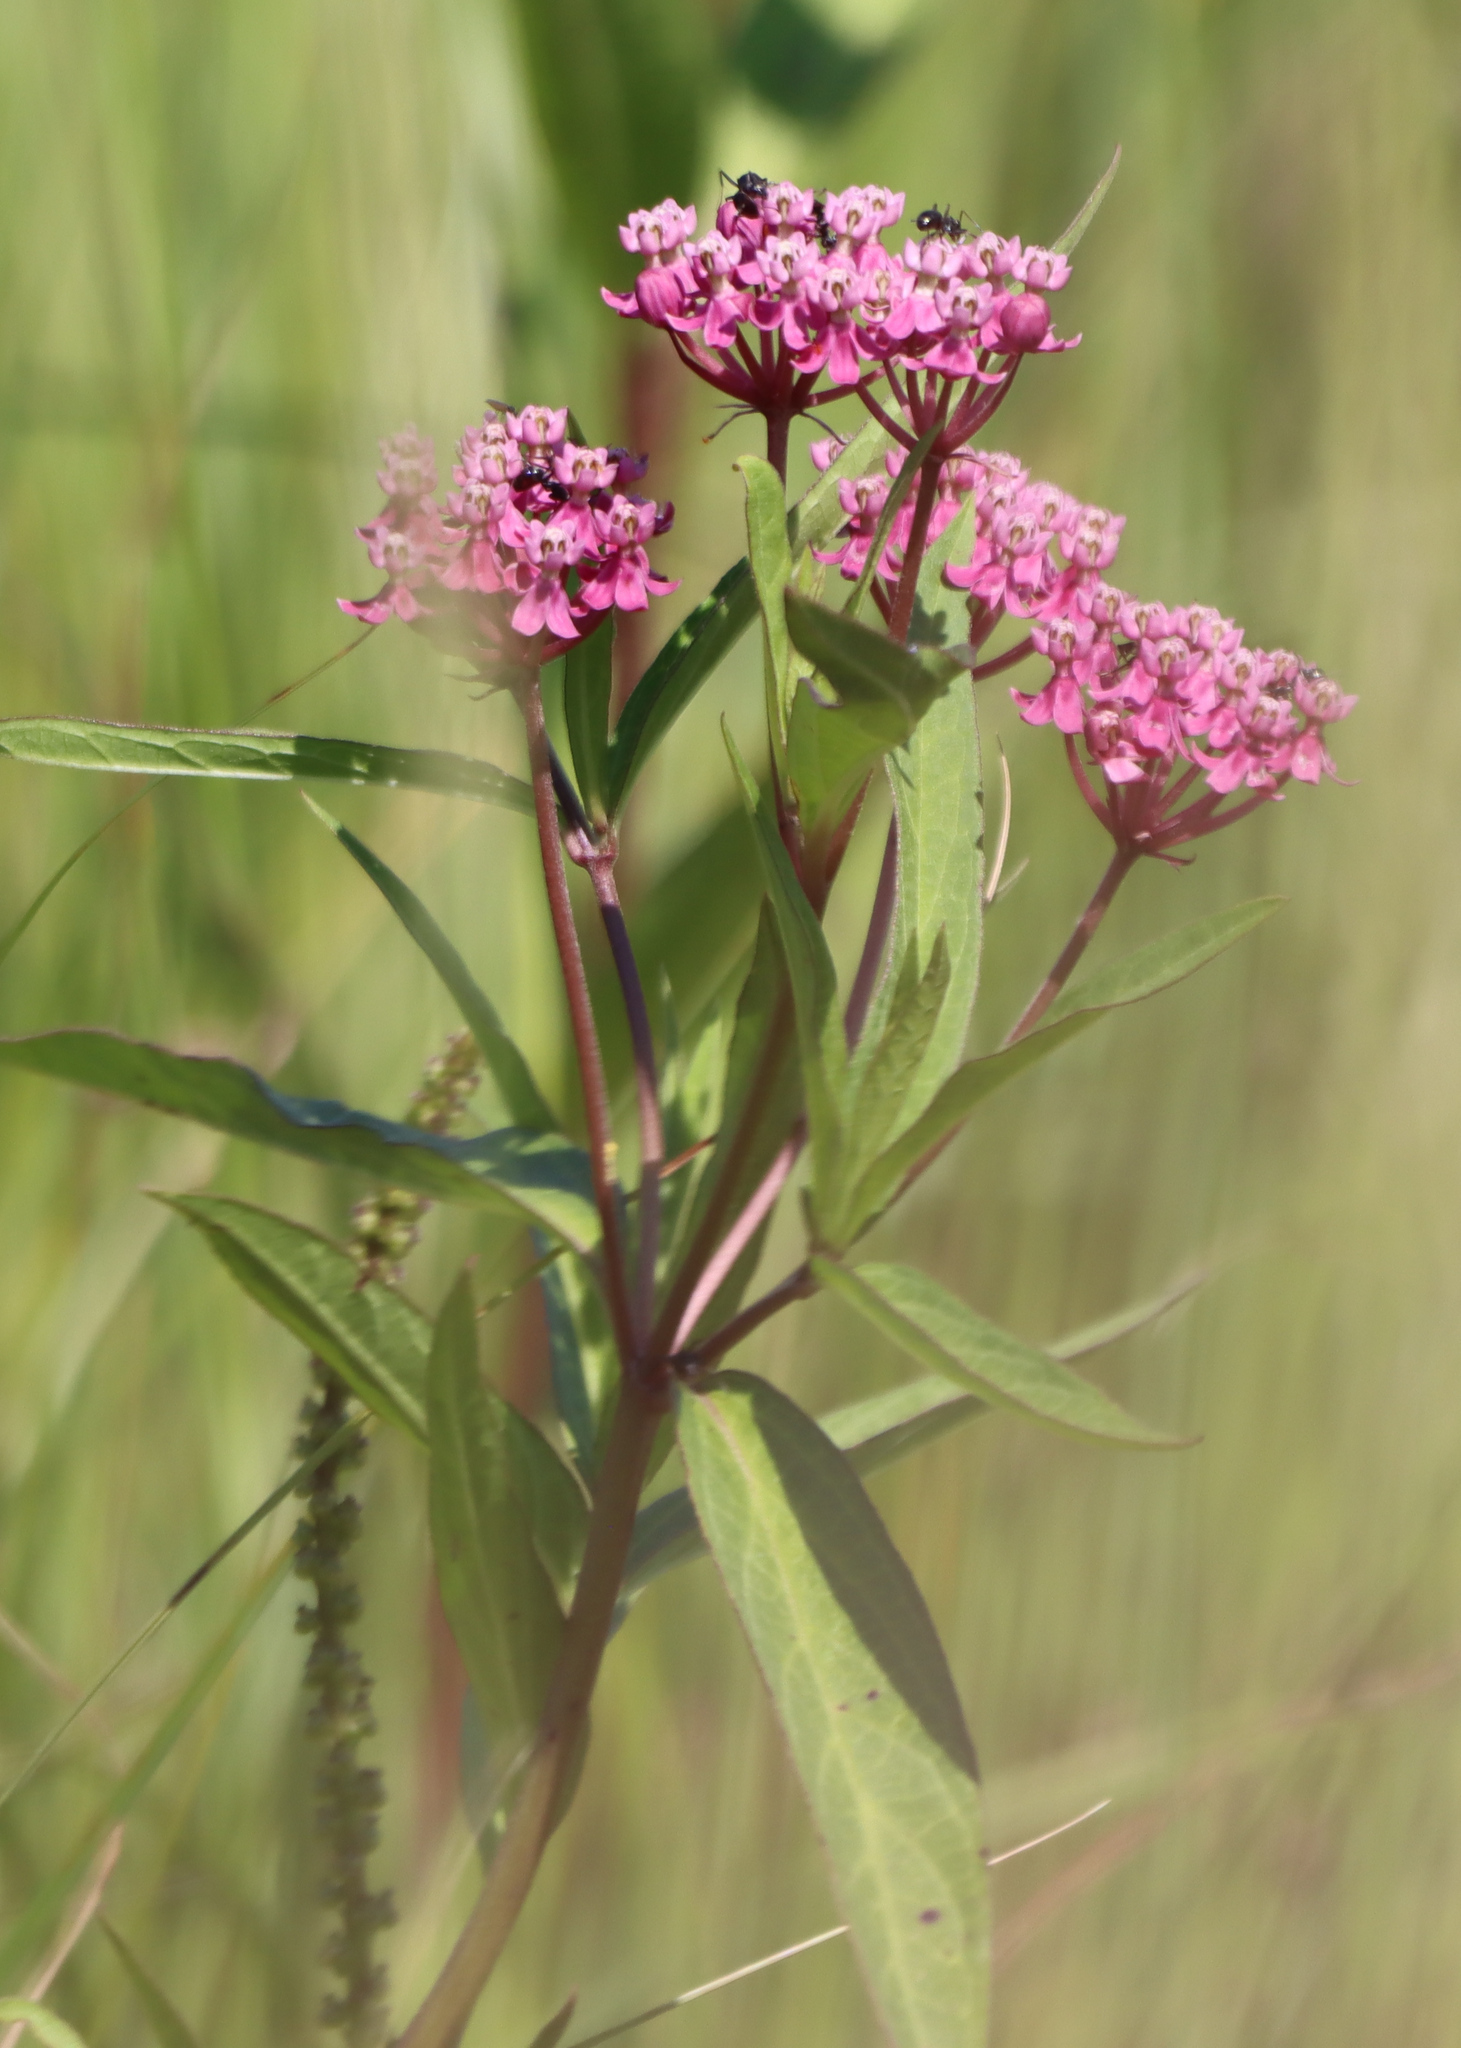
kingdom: Plantae
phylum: Tracheophyta
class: Magnoliopsida
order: Gentianales
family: Apocynaceae
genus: Asclepias
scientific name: Asclepias incarnata
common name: Swamp milkweed
